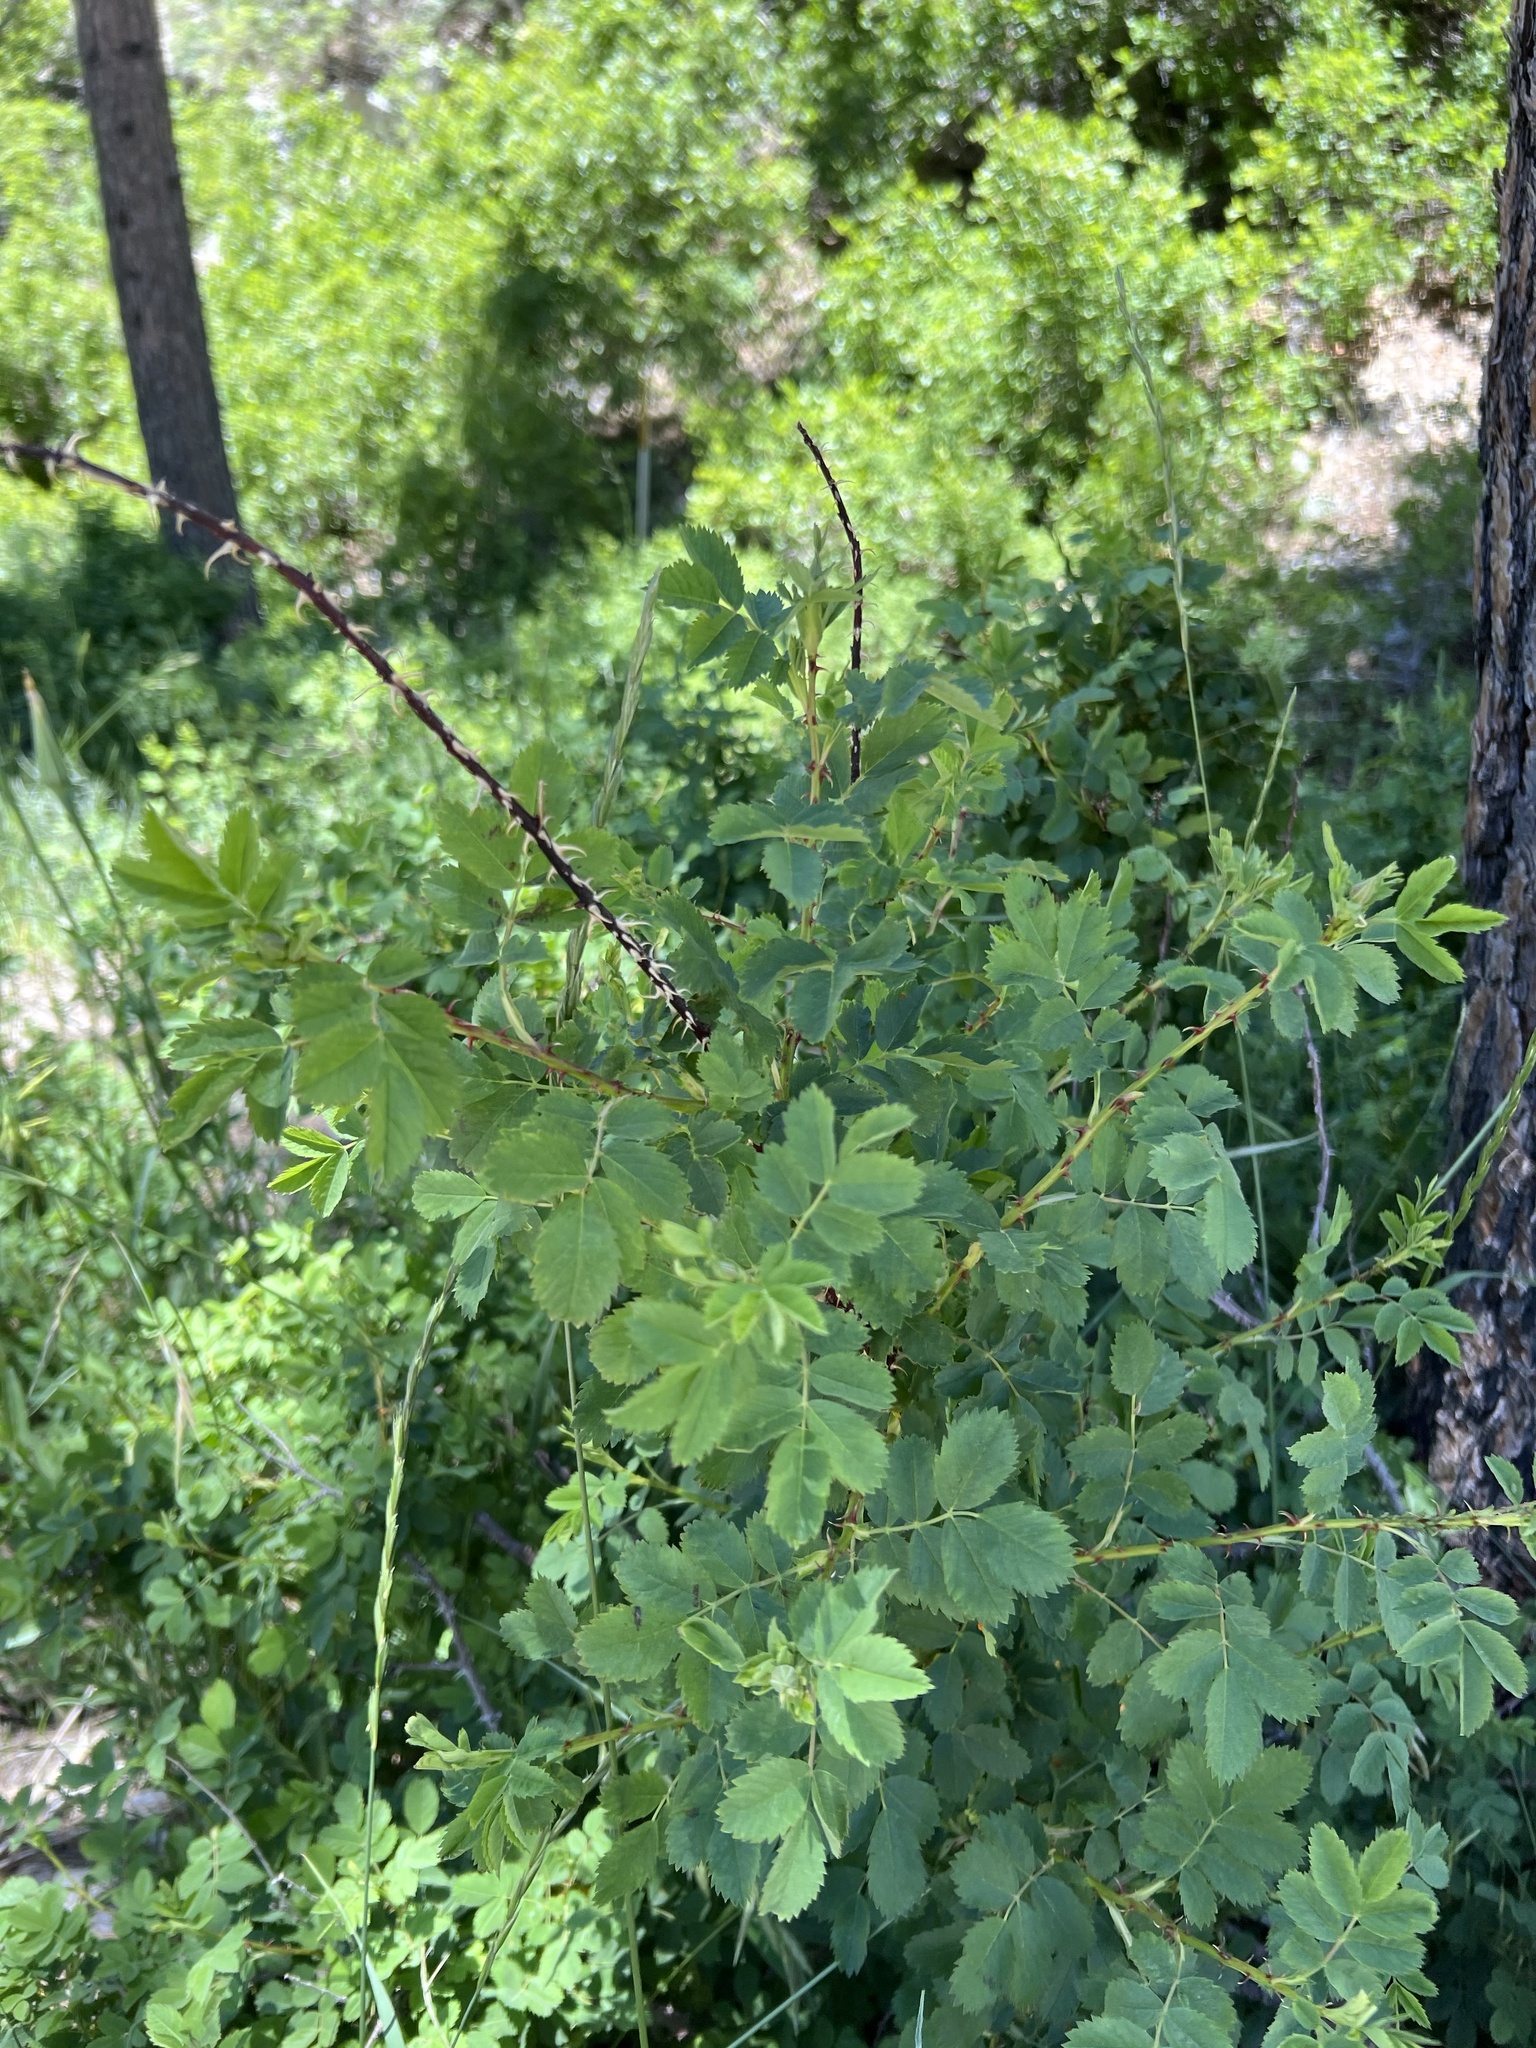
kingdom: Plantae
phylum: Tracheophyta
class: Magnoliopsida
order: Rosales
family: Rosaceae
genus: Rosa
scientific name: Rosa woodsii
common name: Woods's rose
